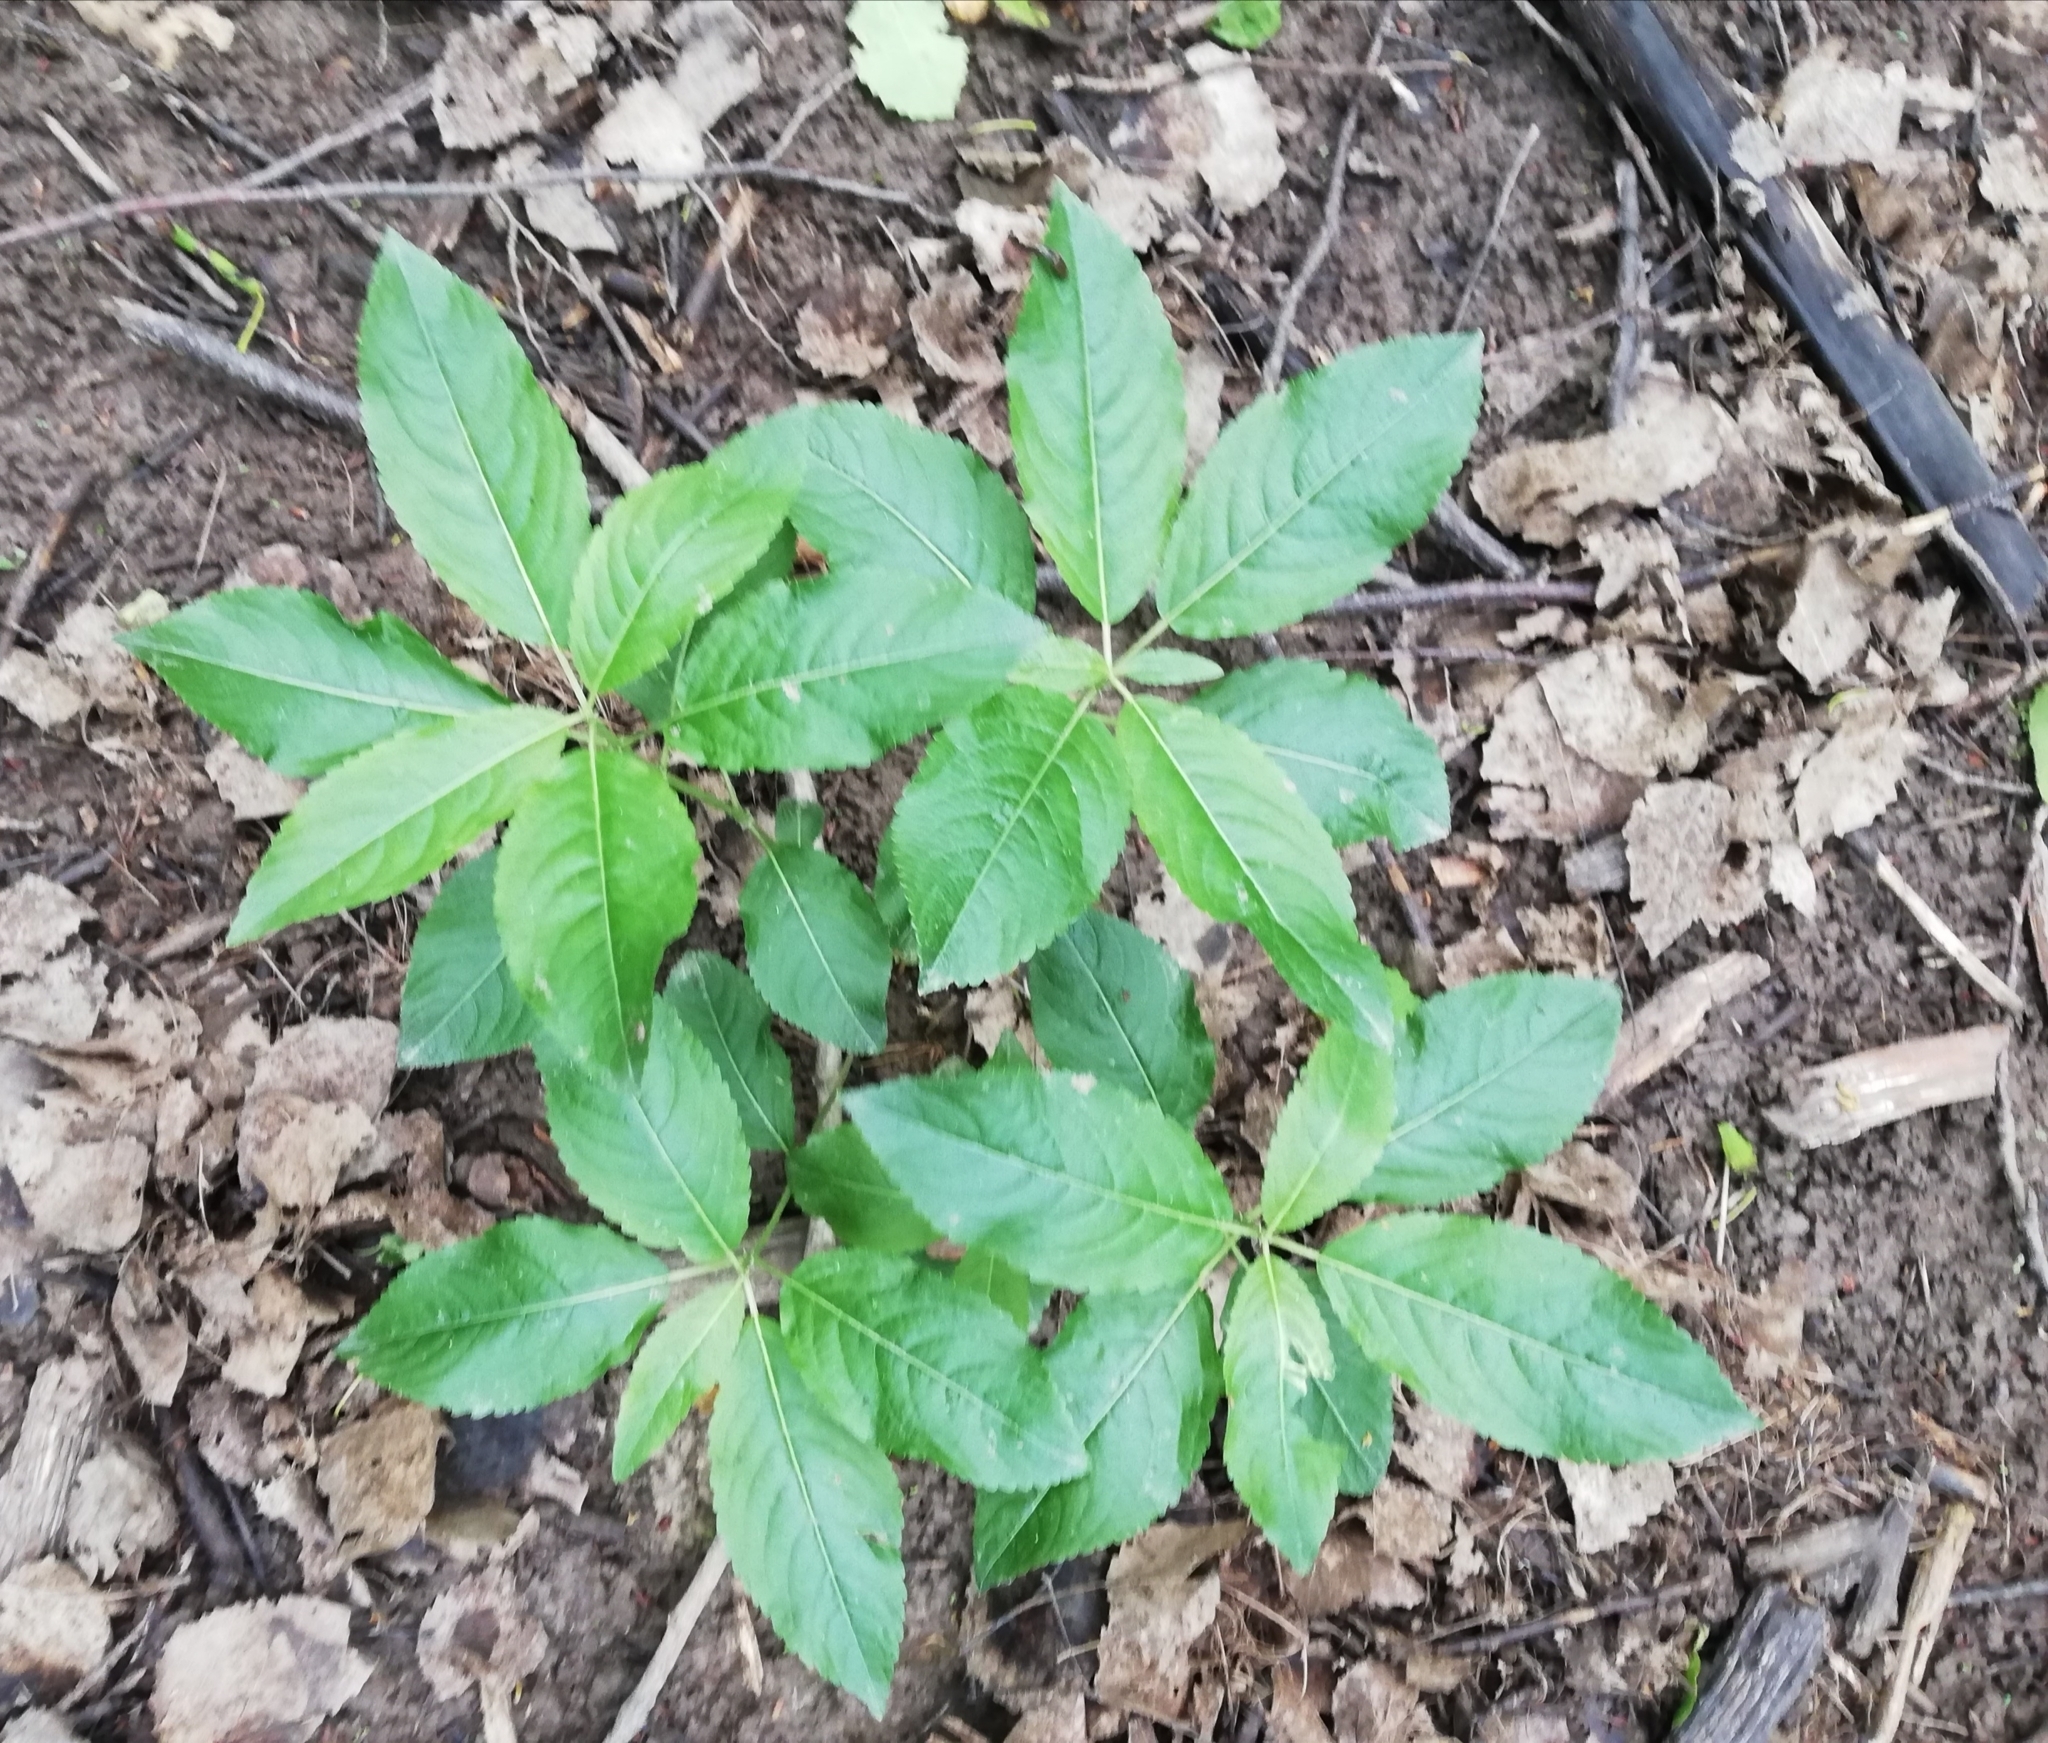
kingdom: Plantae
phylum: Tracheophyta
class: Magnoliopsida
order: Malpighiales
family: Euphorbiaceae
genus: Mercurialis
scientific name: Mercurialis perennis
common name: Dog mercury
